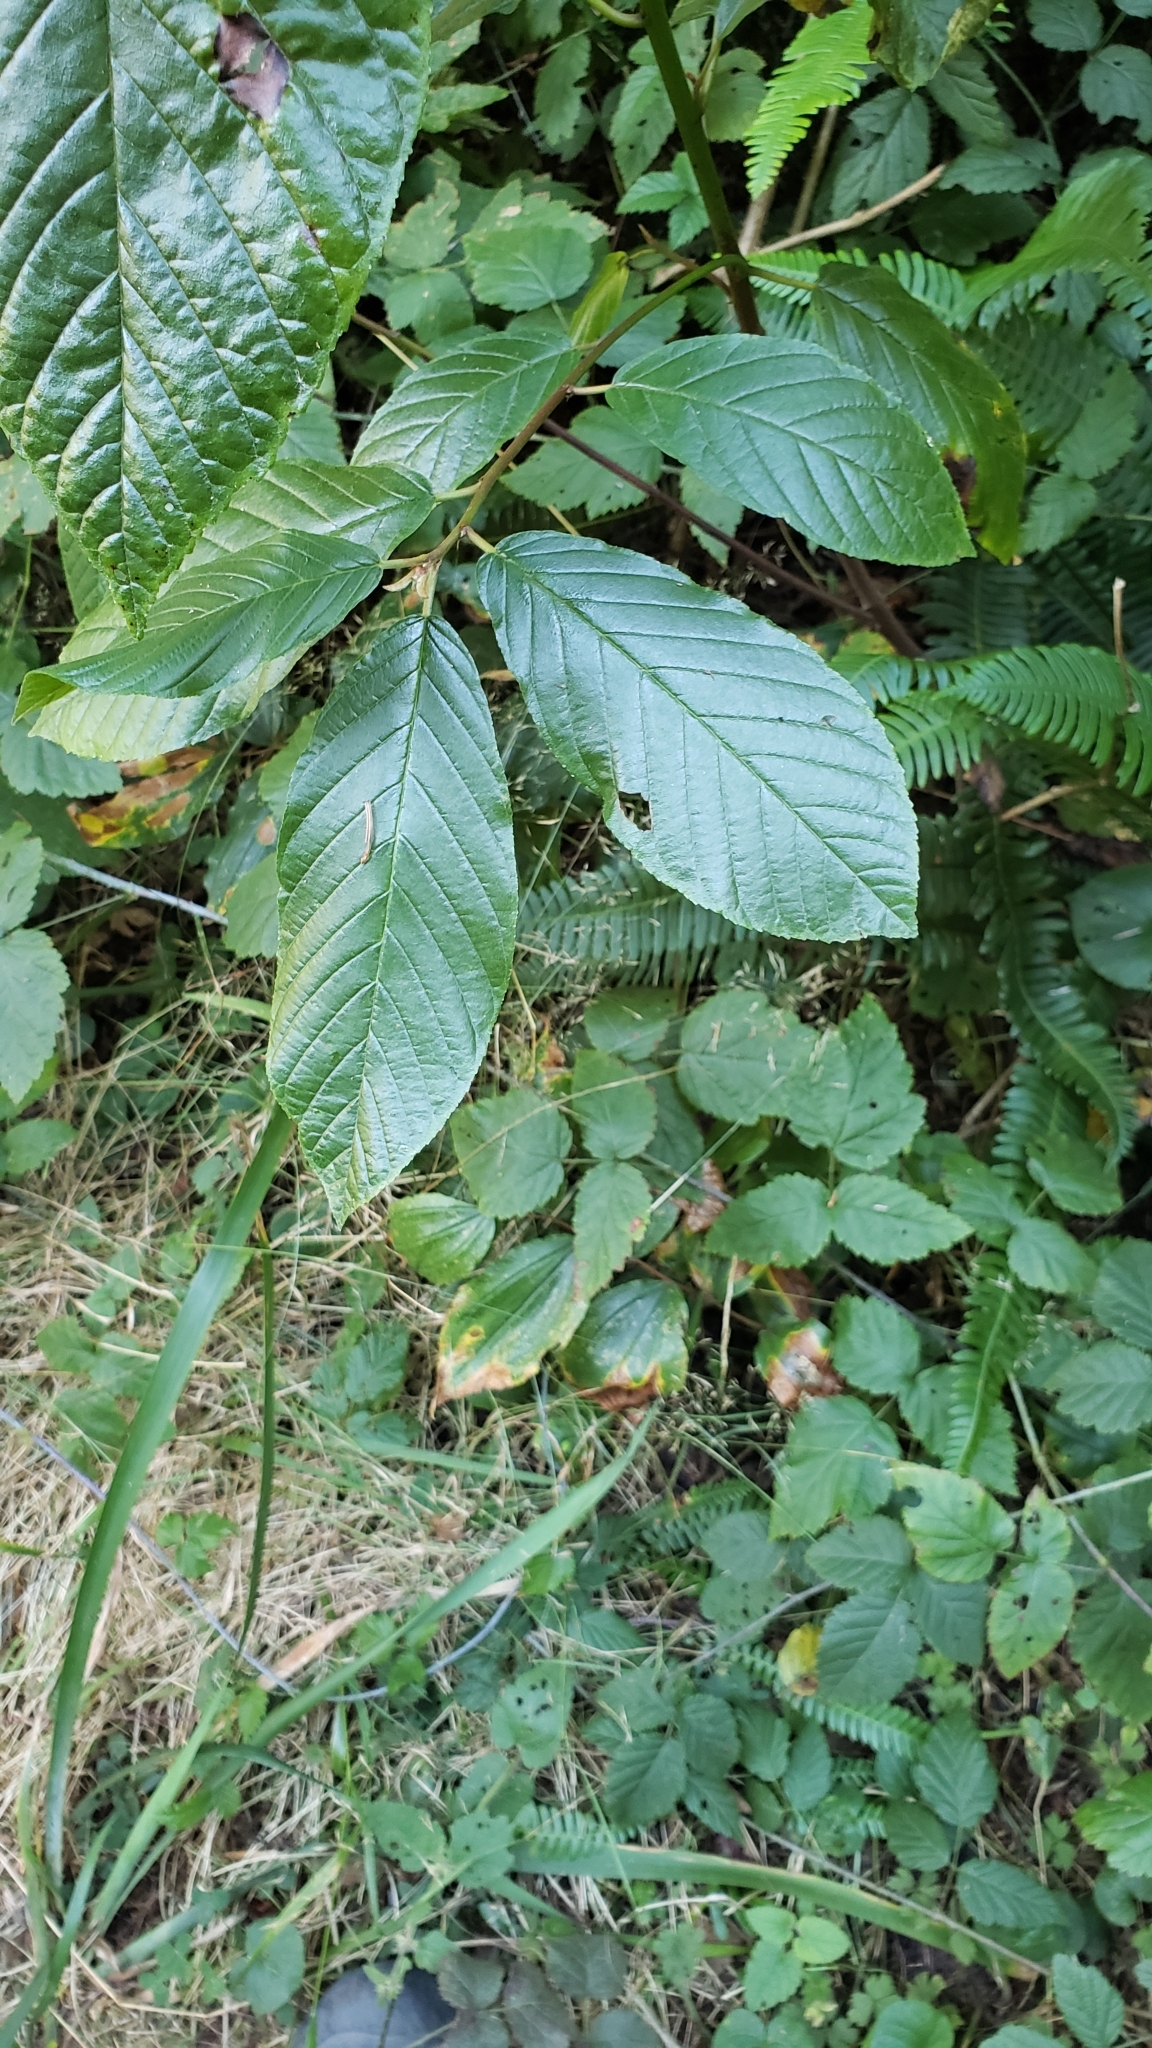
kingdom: Plantae
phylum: Tracheophyta
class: Magnoliopsida
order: Rosales
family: Rhamnaceae
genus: Frangula
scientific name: Frangula purshiana
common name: Cascara buckthorn
